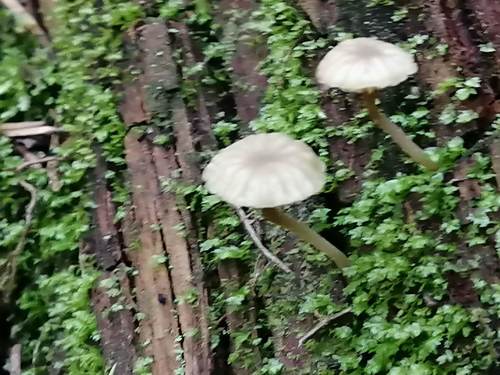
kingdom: Fungi
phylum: Basidiomycota
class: Agaricomycetes
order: Agaricales
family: Hygrophoraceae
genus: Lichenomphalia
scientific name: Lichenomphalia umbellifera
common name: Heath navel
